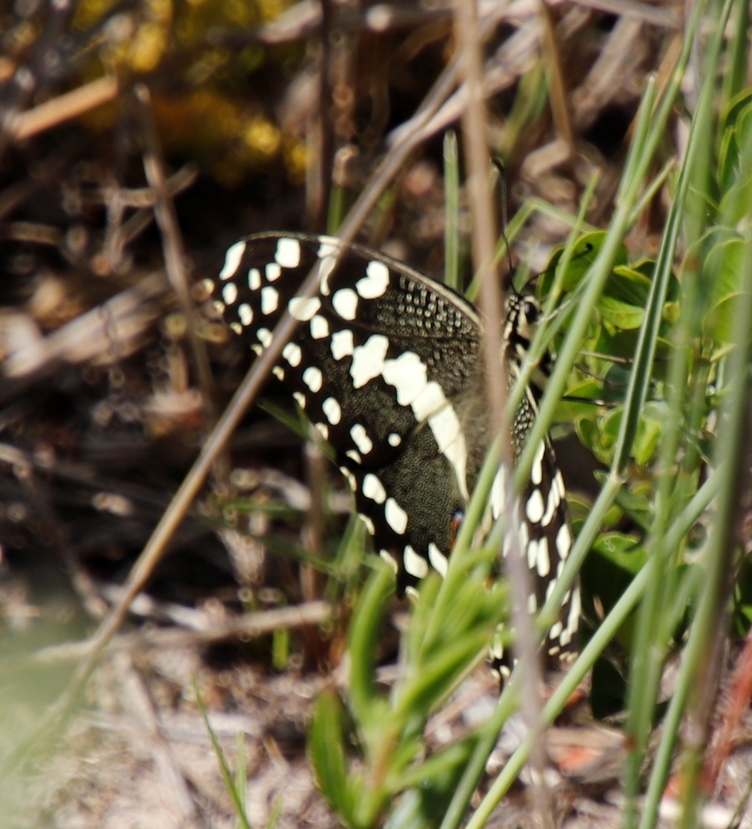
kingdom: Animalia
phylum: Arthropoda
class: Insecta
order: Lepidoptera
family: Papilionidae
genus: Papilio
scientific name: Papilio demodocus
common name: Christmas butterfly
